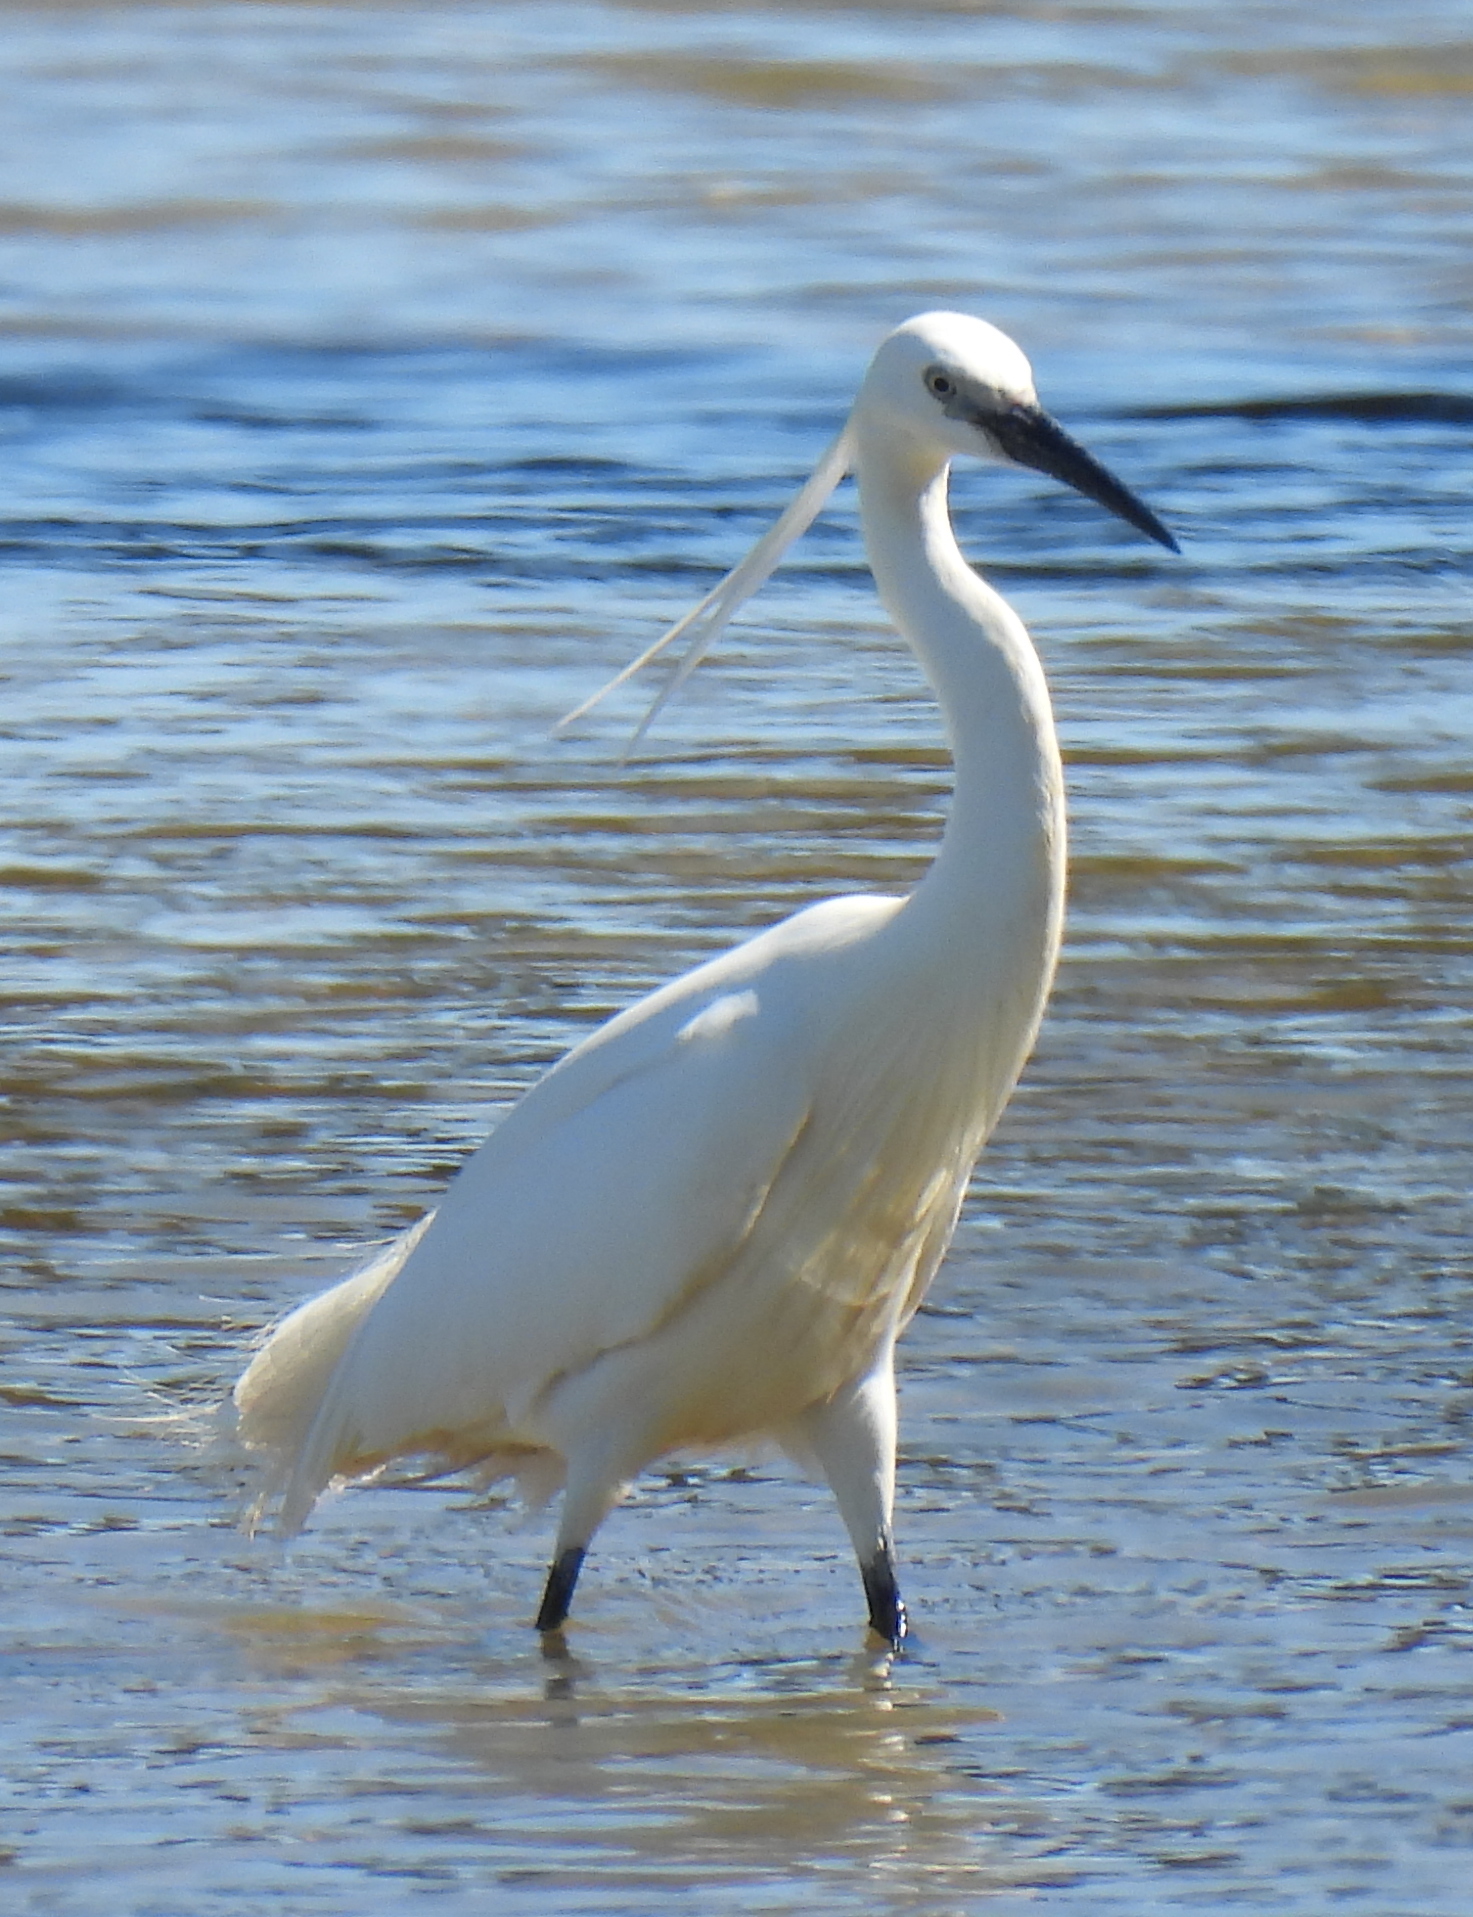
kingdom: Animalia
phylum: Chordata
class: Aves
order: Pelecaniformes
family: Ardeidae
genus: Egretta
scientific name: Egretta garzetta
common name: Little egret
